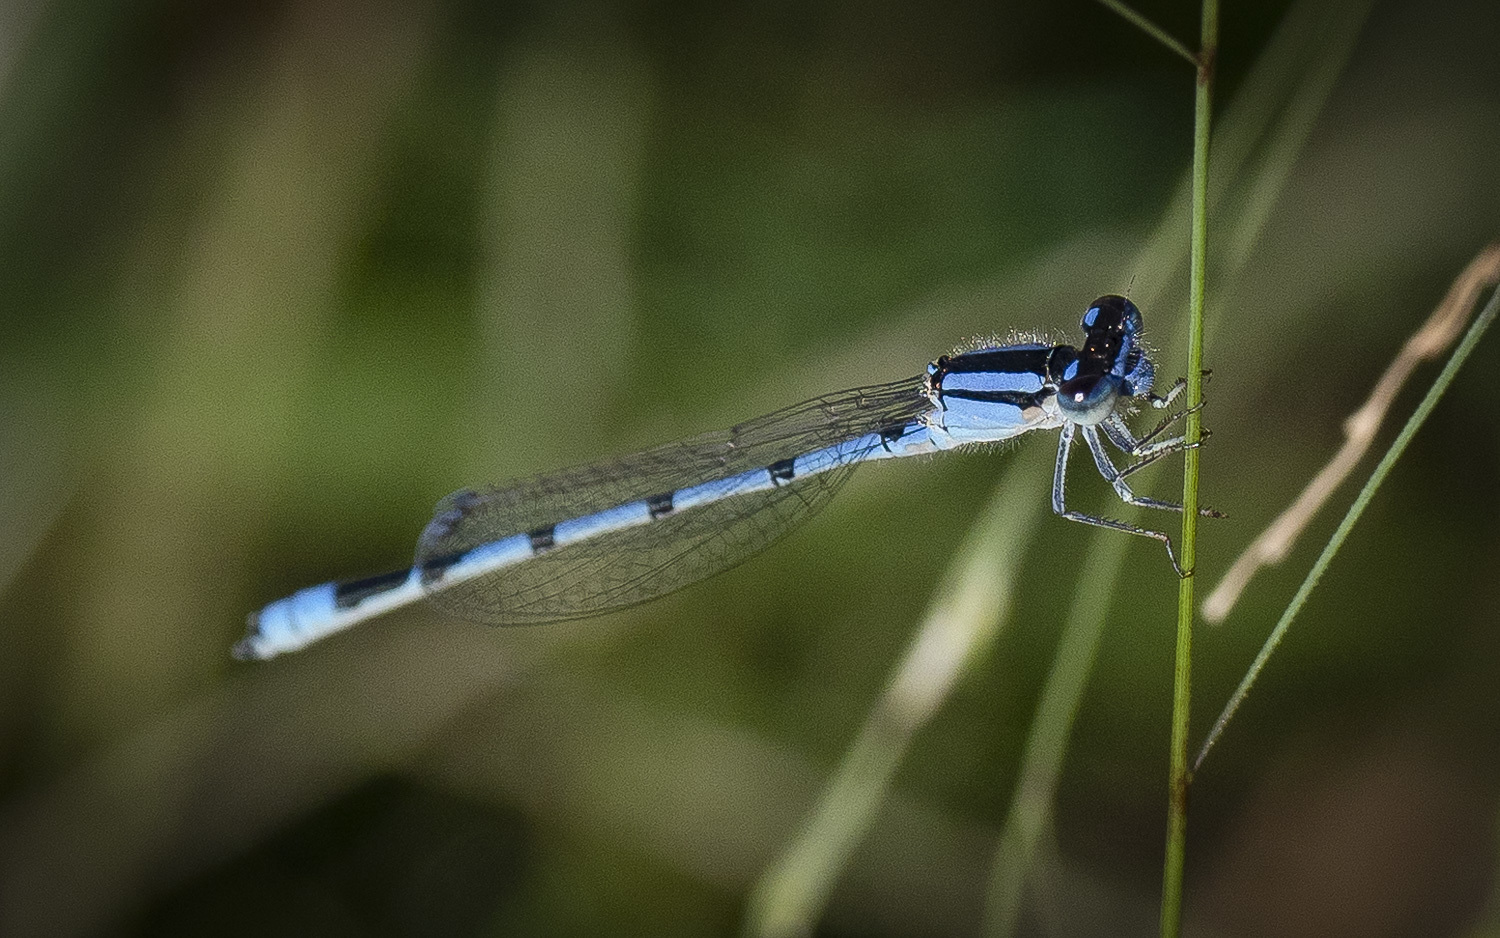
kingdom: Animalia
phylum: Arthropoda
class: Insecta
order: Odonata
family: Coenagrionidae
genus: Enallagma
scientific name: Enallagma civile
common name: Damselfly
